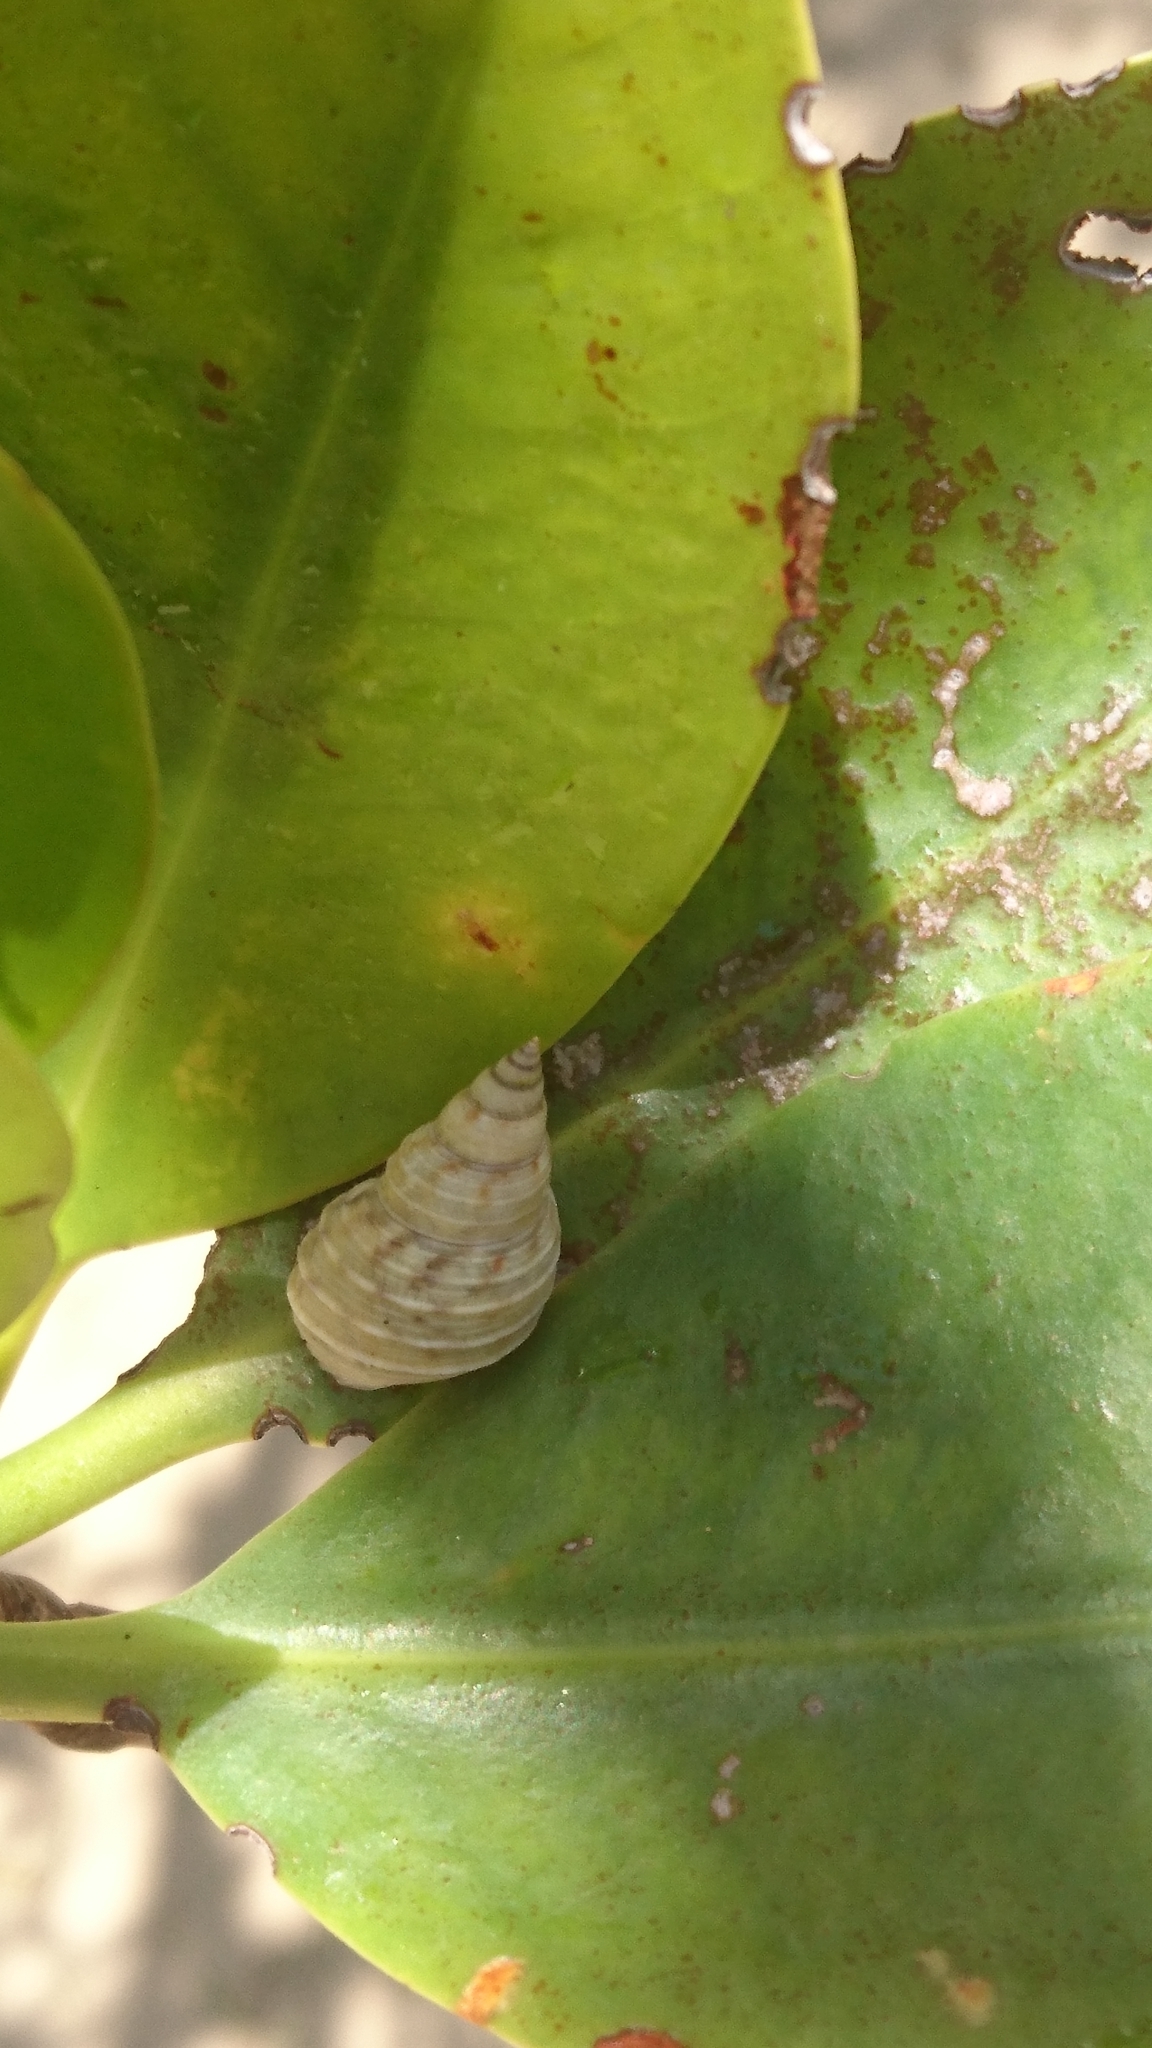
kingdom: Animalia
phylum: Mollusca
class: Gastropoda
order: Littorinimorpha
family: Littorinidae
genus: Littoraria
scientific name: Littoraria filosa
